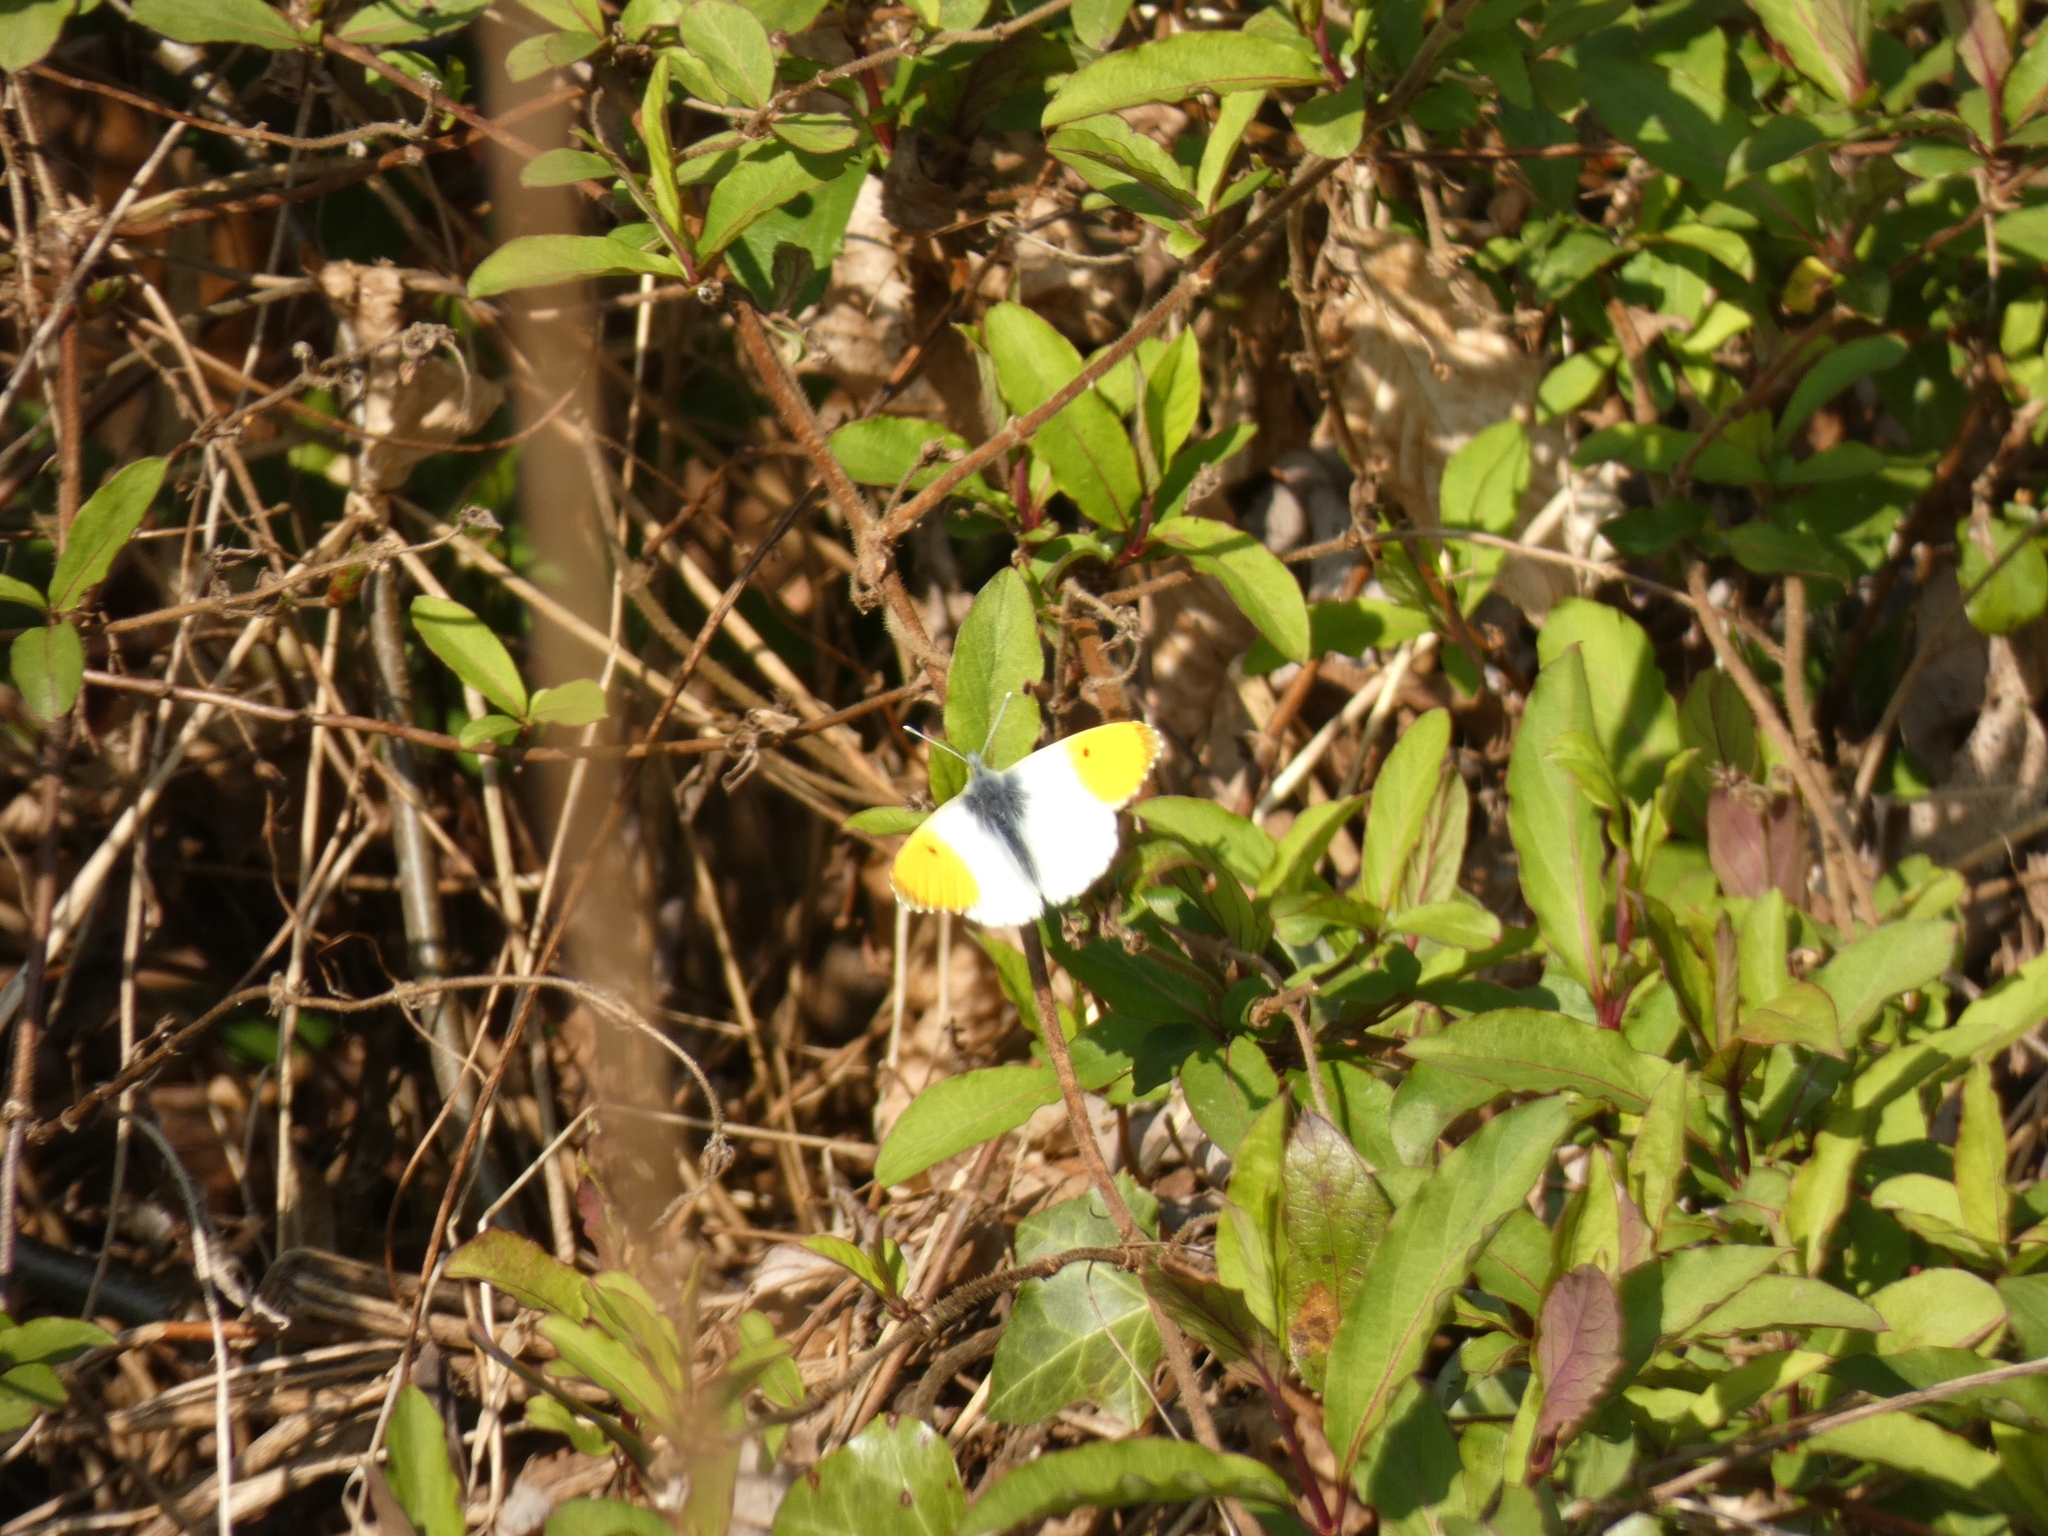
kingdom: Animalia
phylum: Arthropoda
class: Insecta
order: Lepidoptera
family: Pieridae
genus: Anthocharis
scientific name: Anthocharis cardamines
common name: Orange-tip
